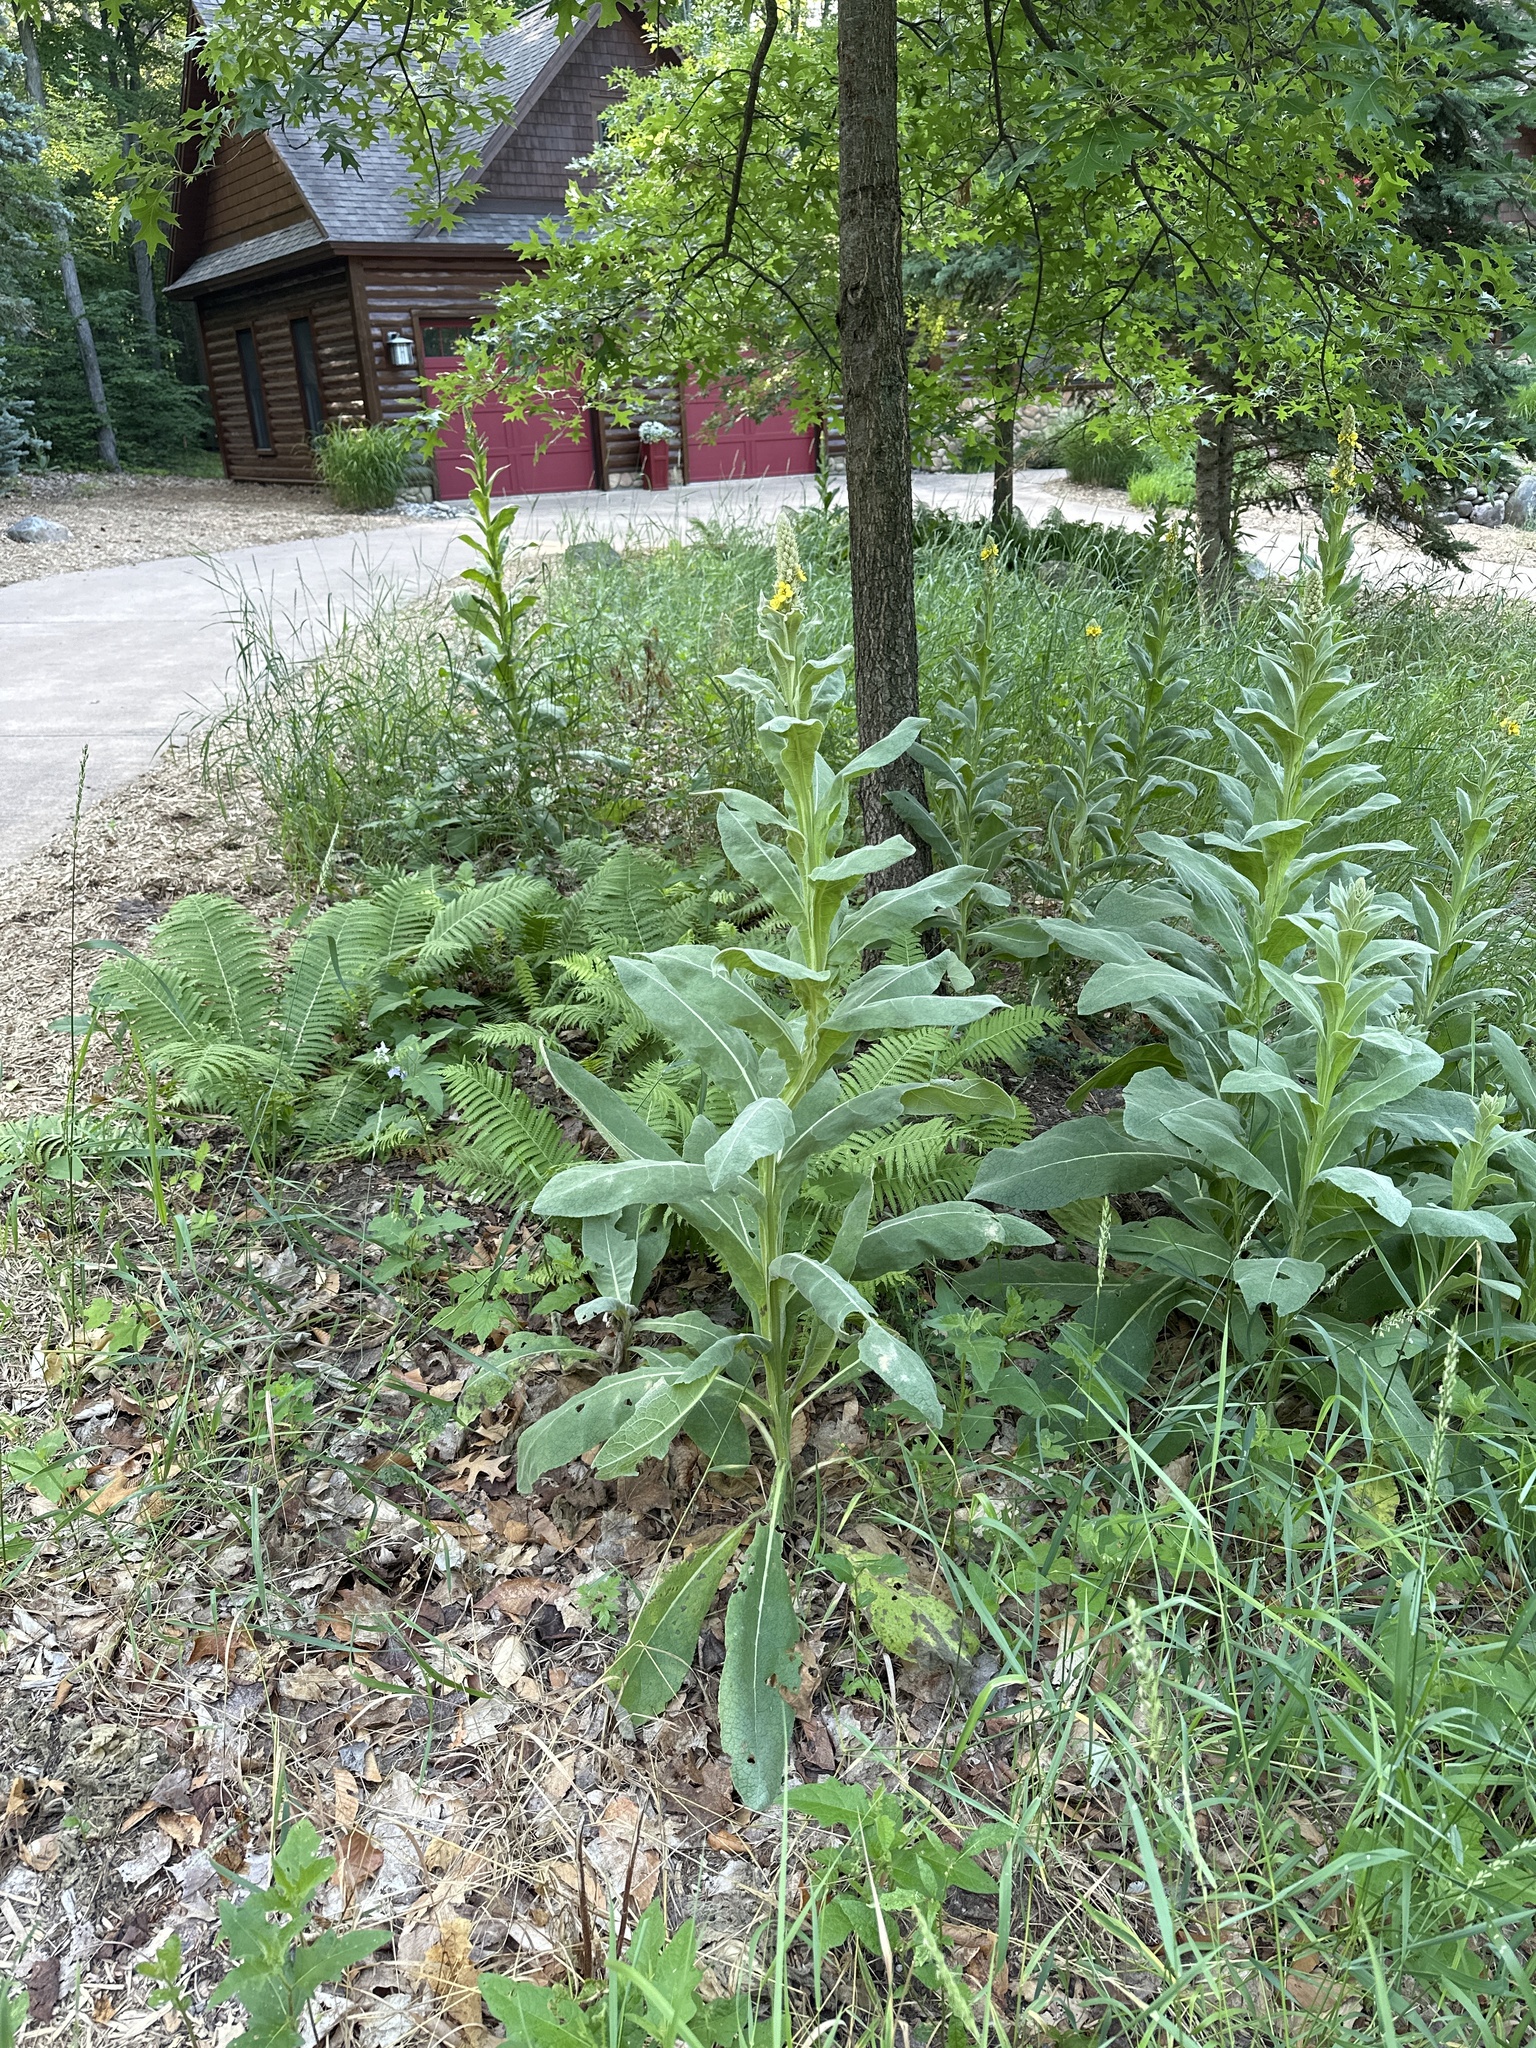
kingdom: Plantae
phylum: Tracheophyta
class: Magnoliopsida
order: Lamiales
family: Scrophulariaceae
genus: Verbascum
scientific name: Verbascum thapsus
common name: Common mullein
